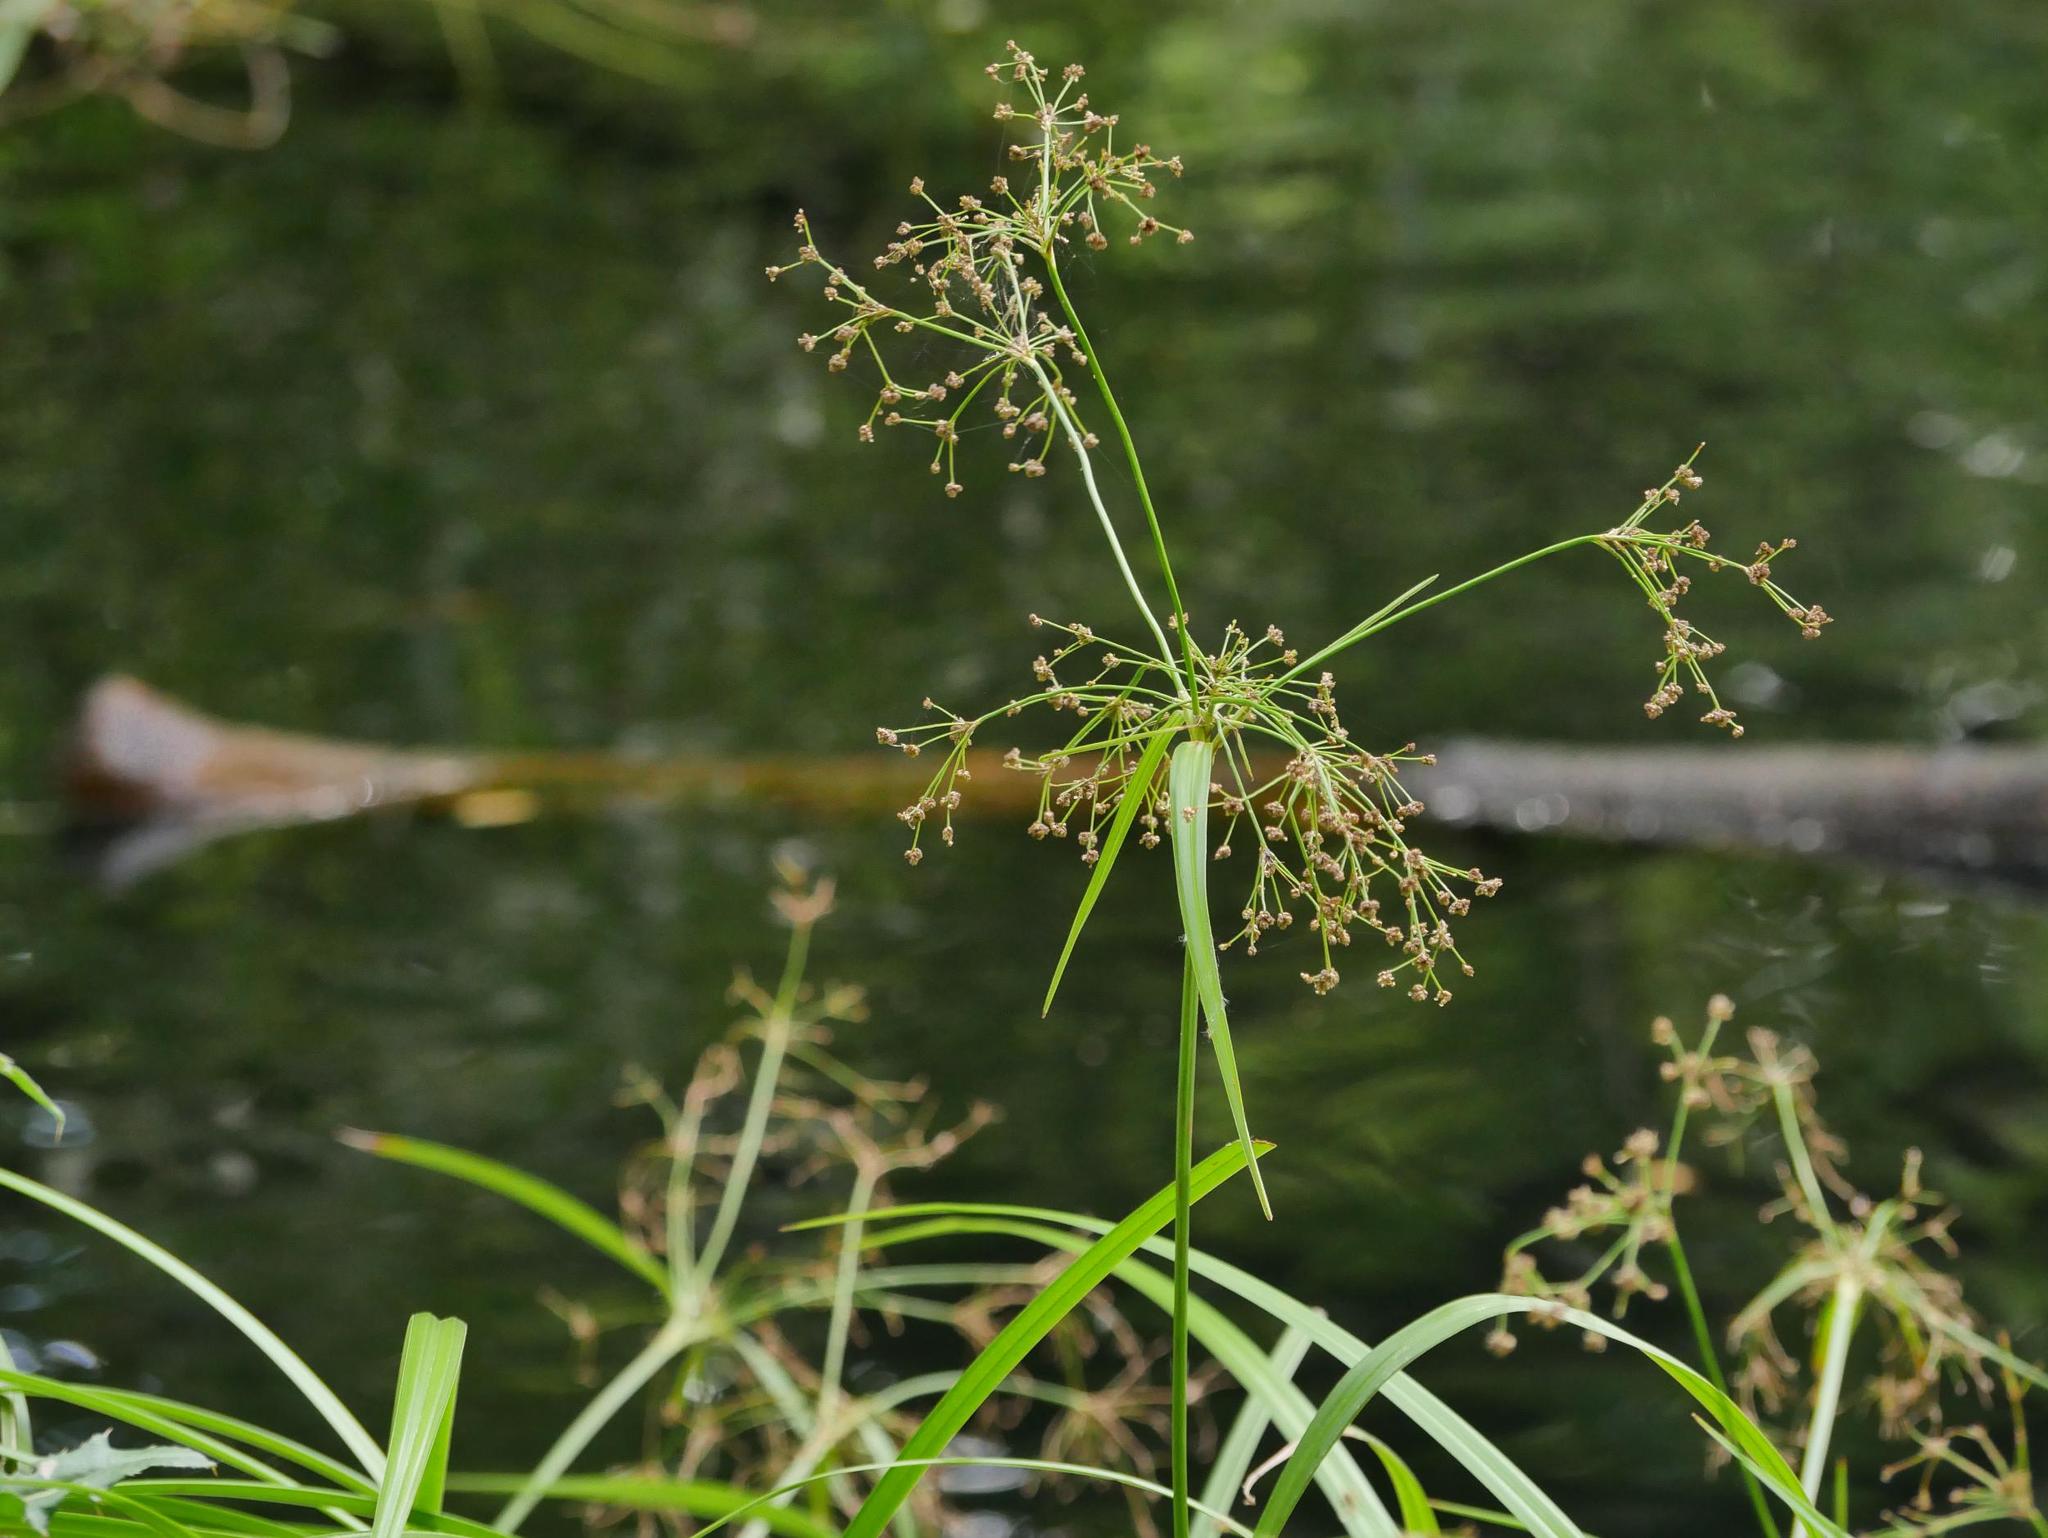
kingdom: Plantae
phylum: Tracheophyta
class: Liliopsida
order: Poales
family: Cyperaceae
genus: Scirpus
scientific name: Scirpus sylvaticus
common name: Wood club-rush
